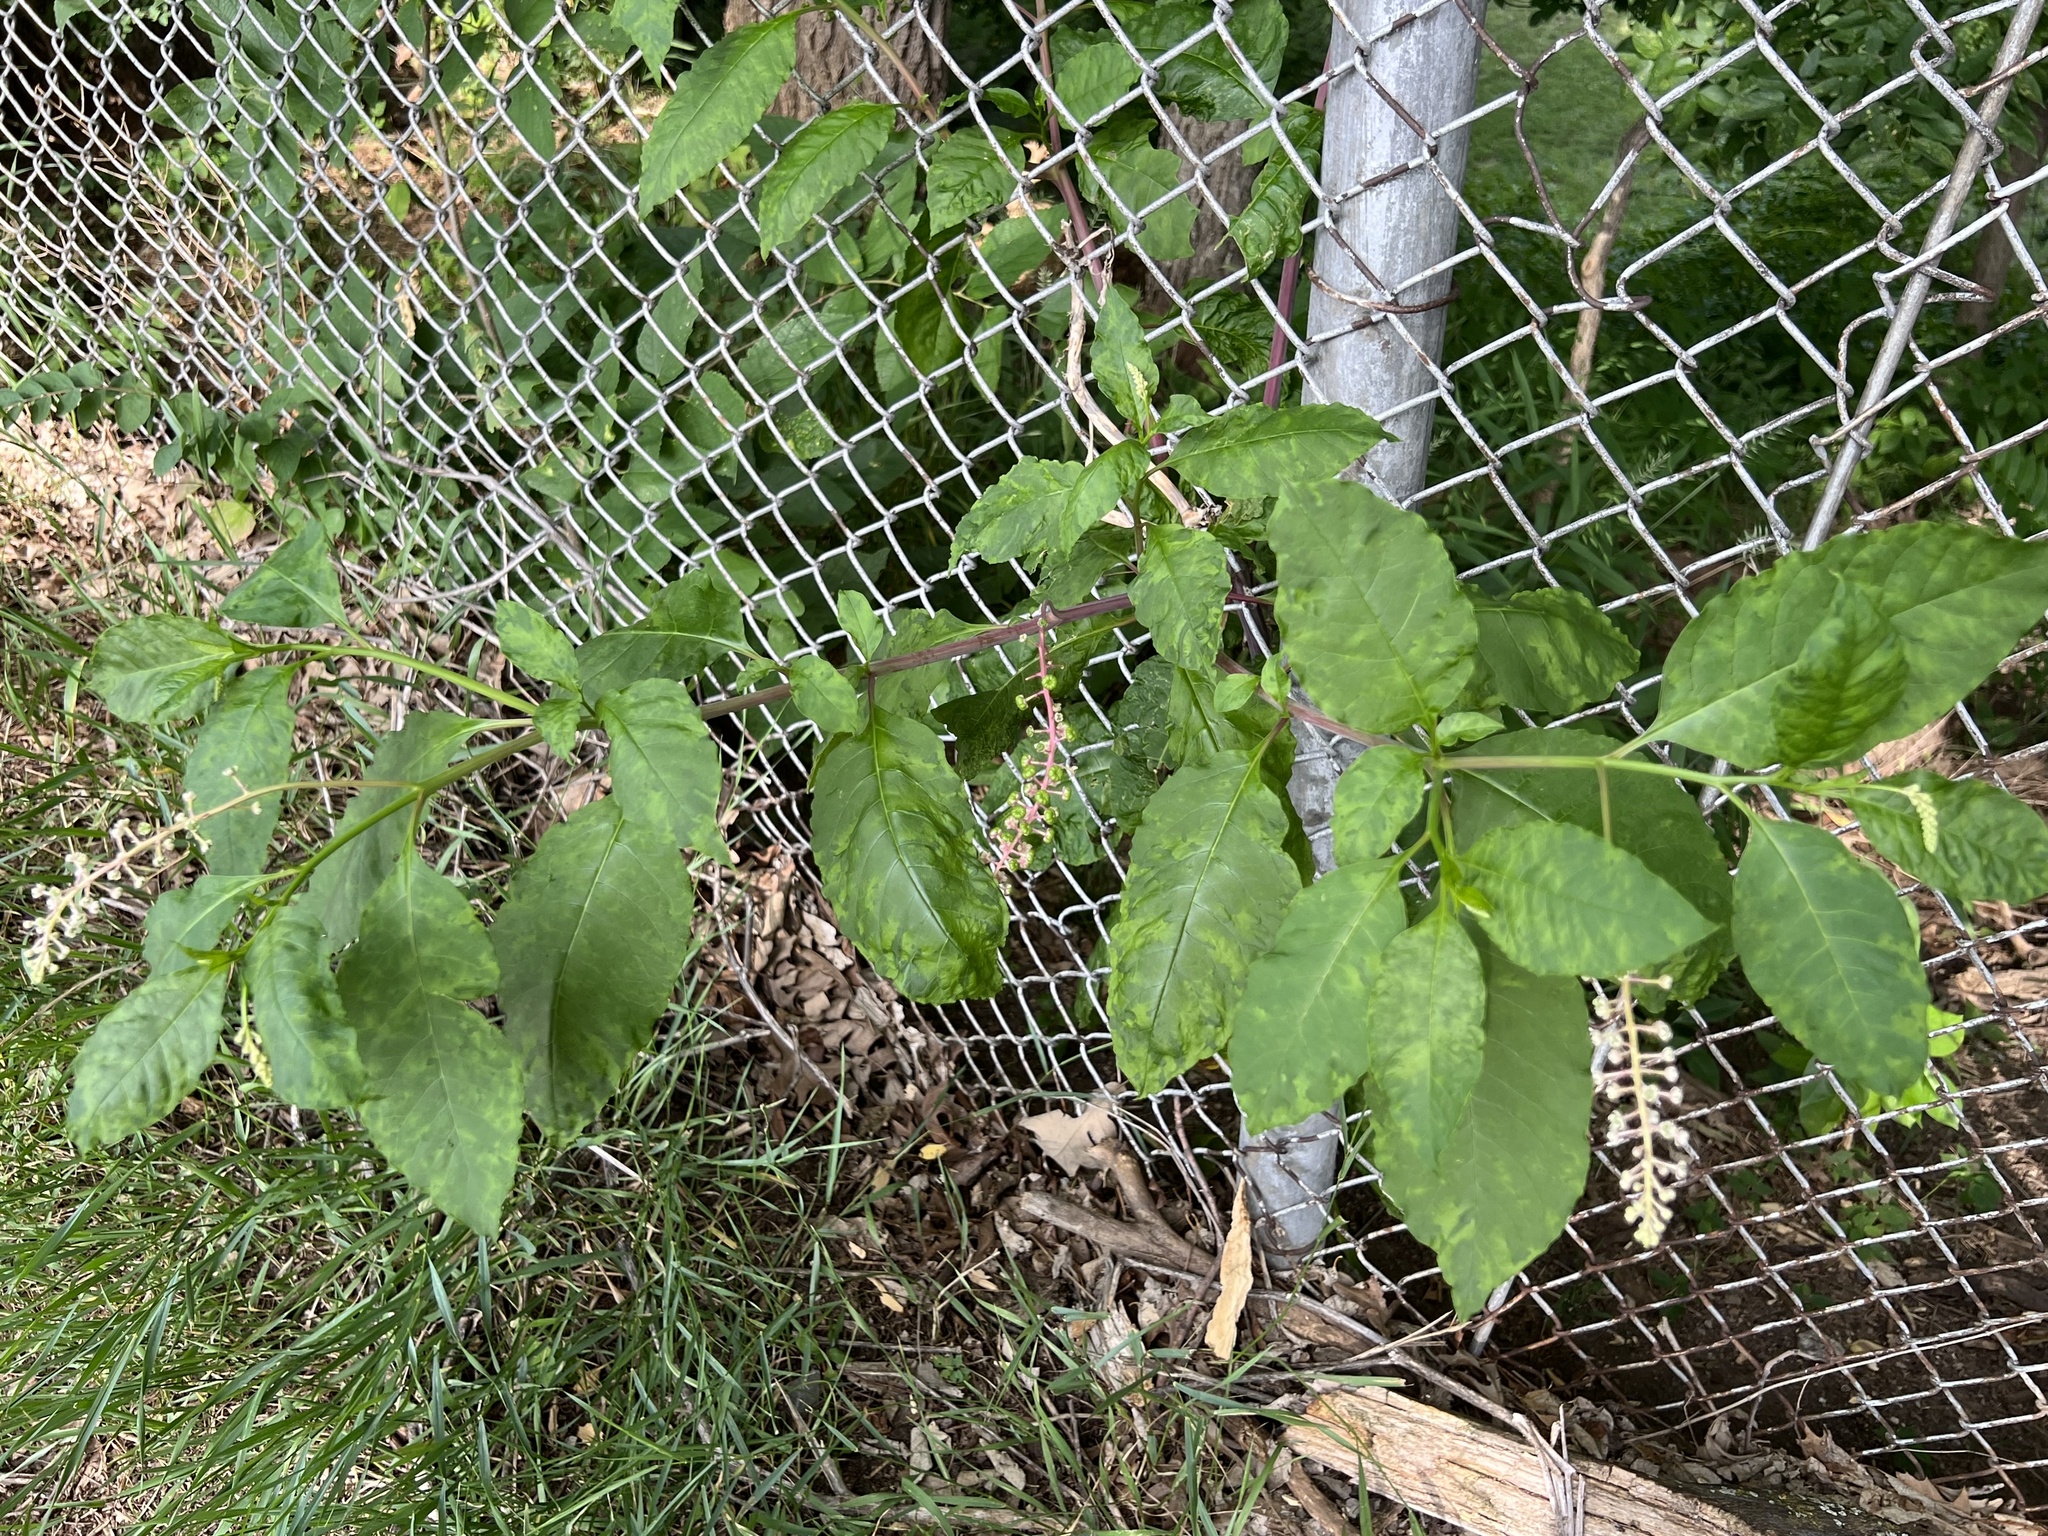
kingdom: Viruses
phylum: Pisuviricota
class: Stelpaviricetes
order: Patatavirales
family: Potyviridae
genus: Potyvirus
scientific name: Potyvirus Pokeweed mosaic virus
